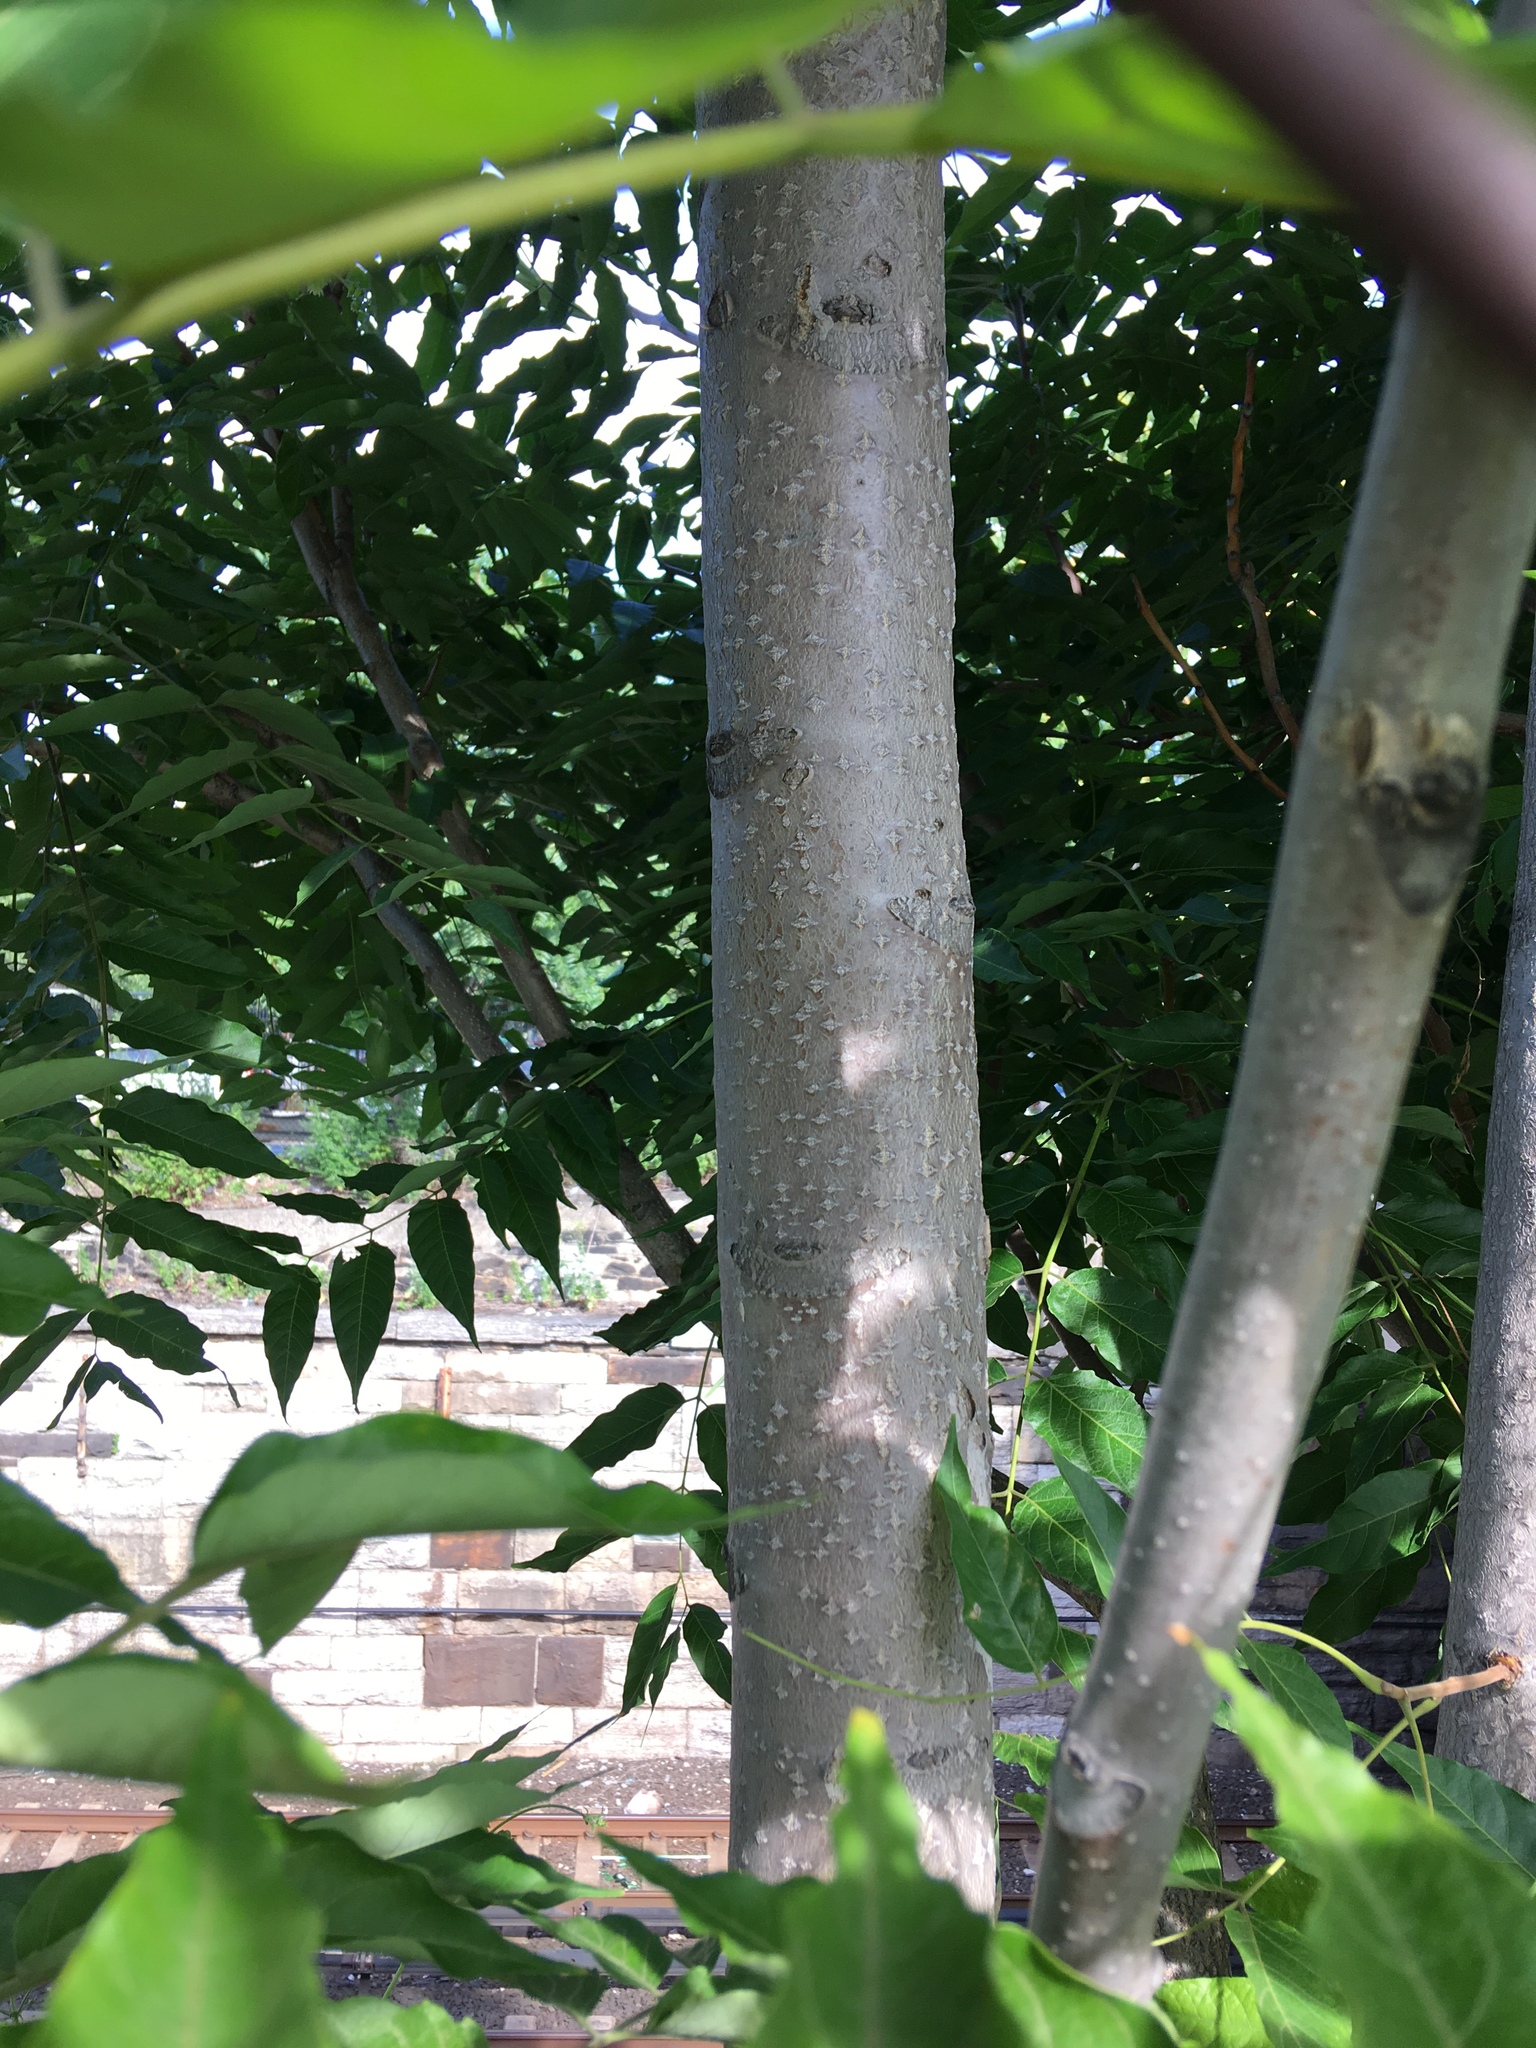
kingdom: Plantae
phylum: Tracheophyta
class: Magnoliopsida
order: Sapindales
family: Simaroubaceae
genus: Ailanthus
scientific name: Ailanthus altissima
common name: Tree-of-heaven
